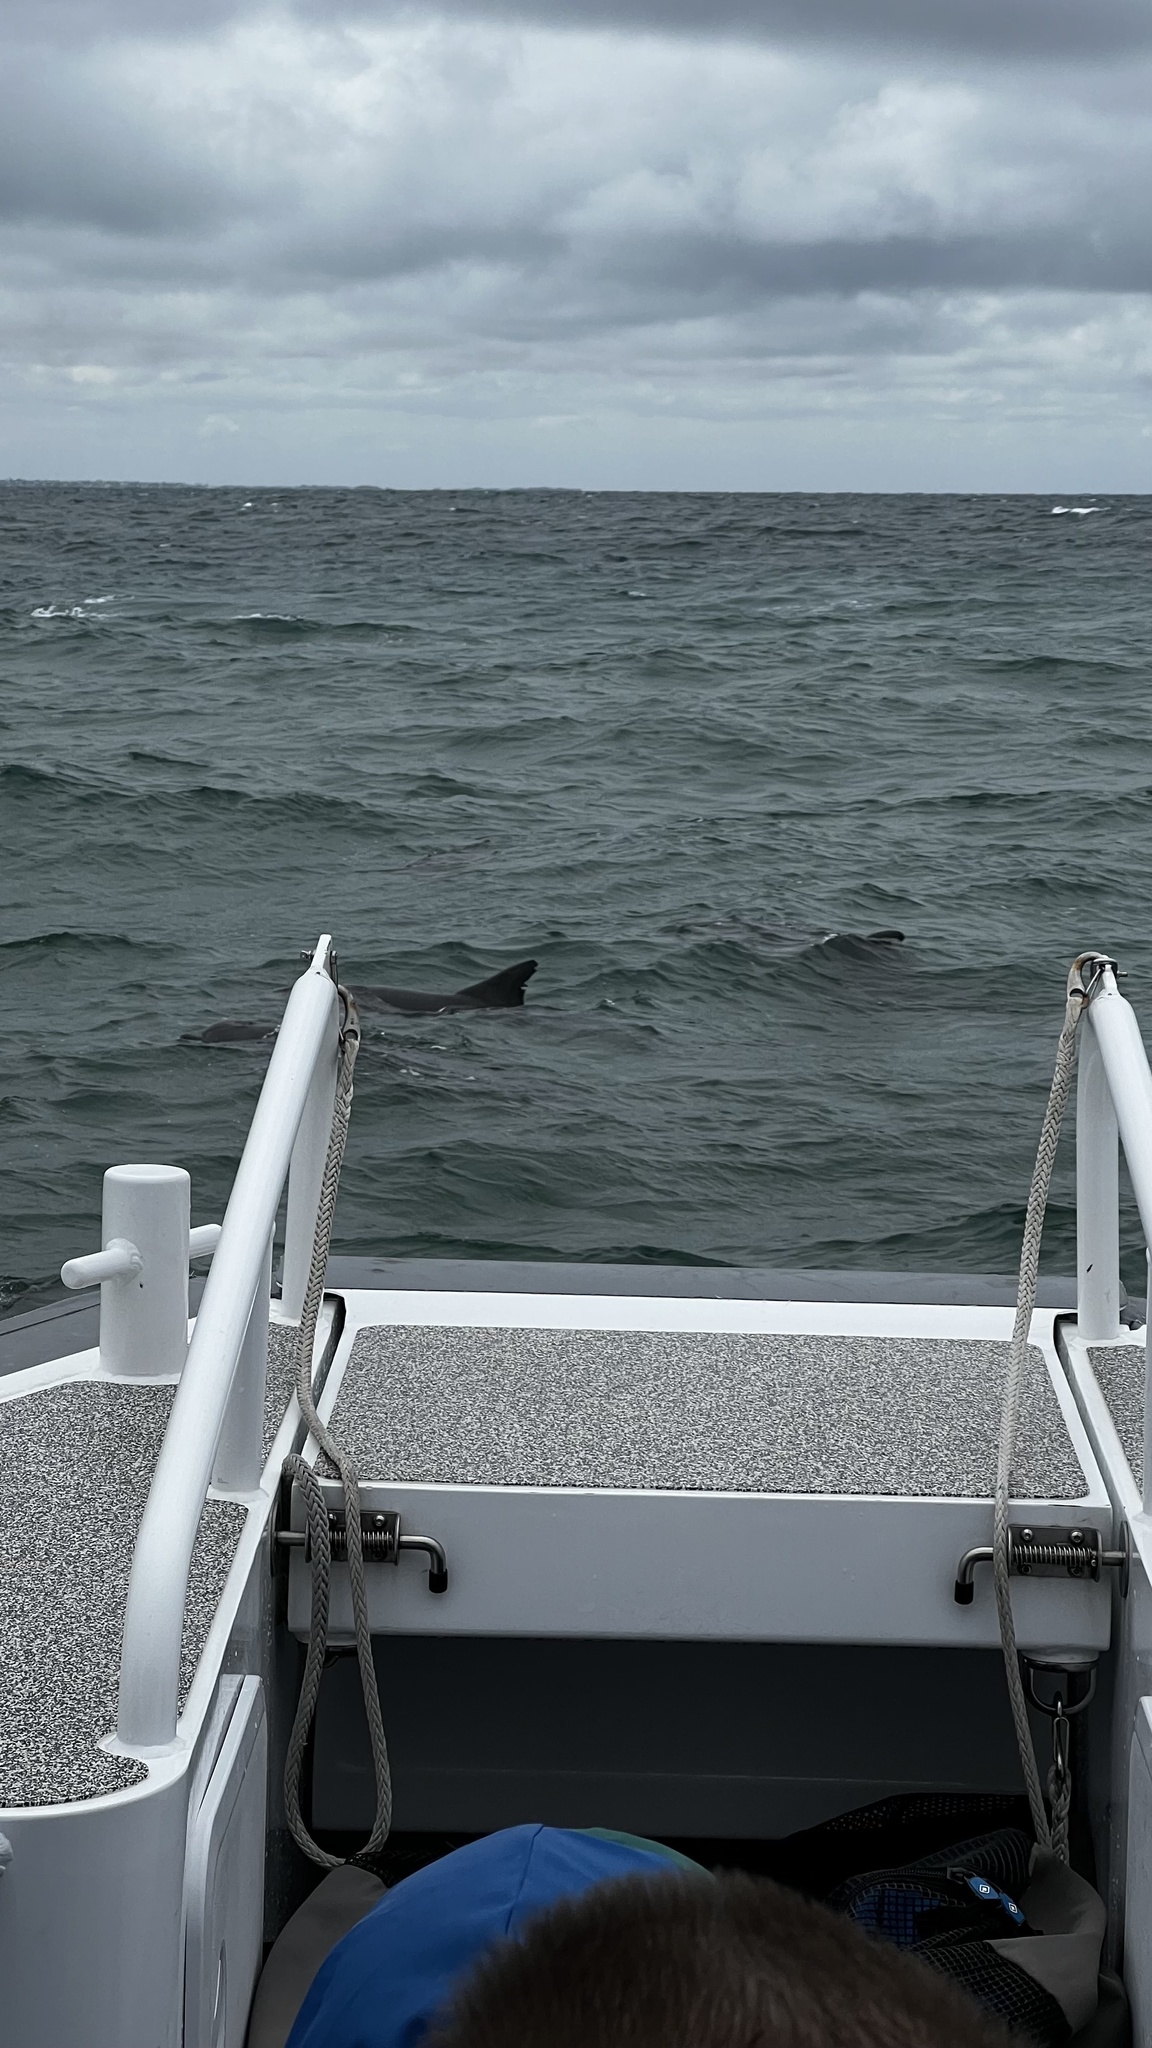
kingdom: Animalia
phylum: Chordata
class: Mammalia
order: Cetacea
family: Delphinidae
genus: Tursiops
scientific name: Tursiops aduncus
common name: Indo-pacific bottlenose dolphin
